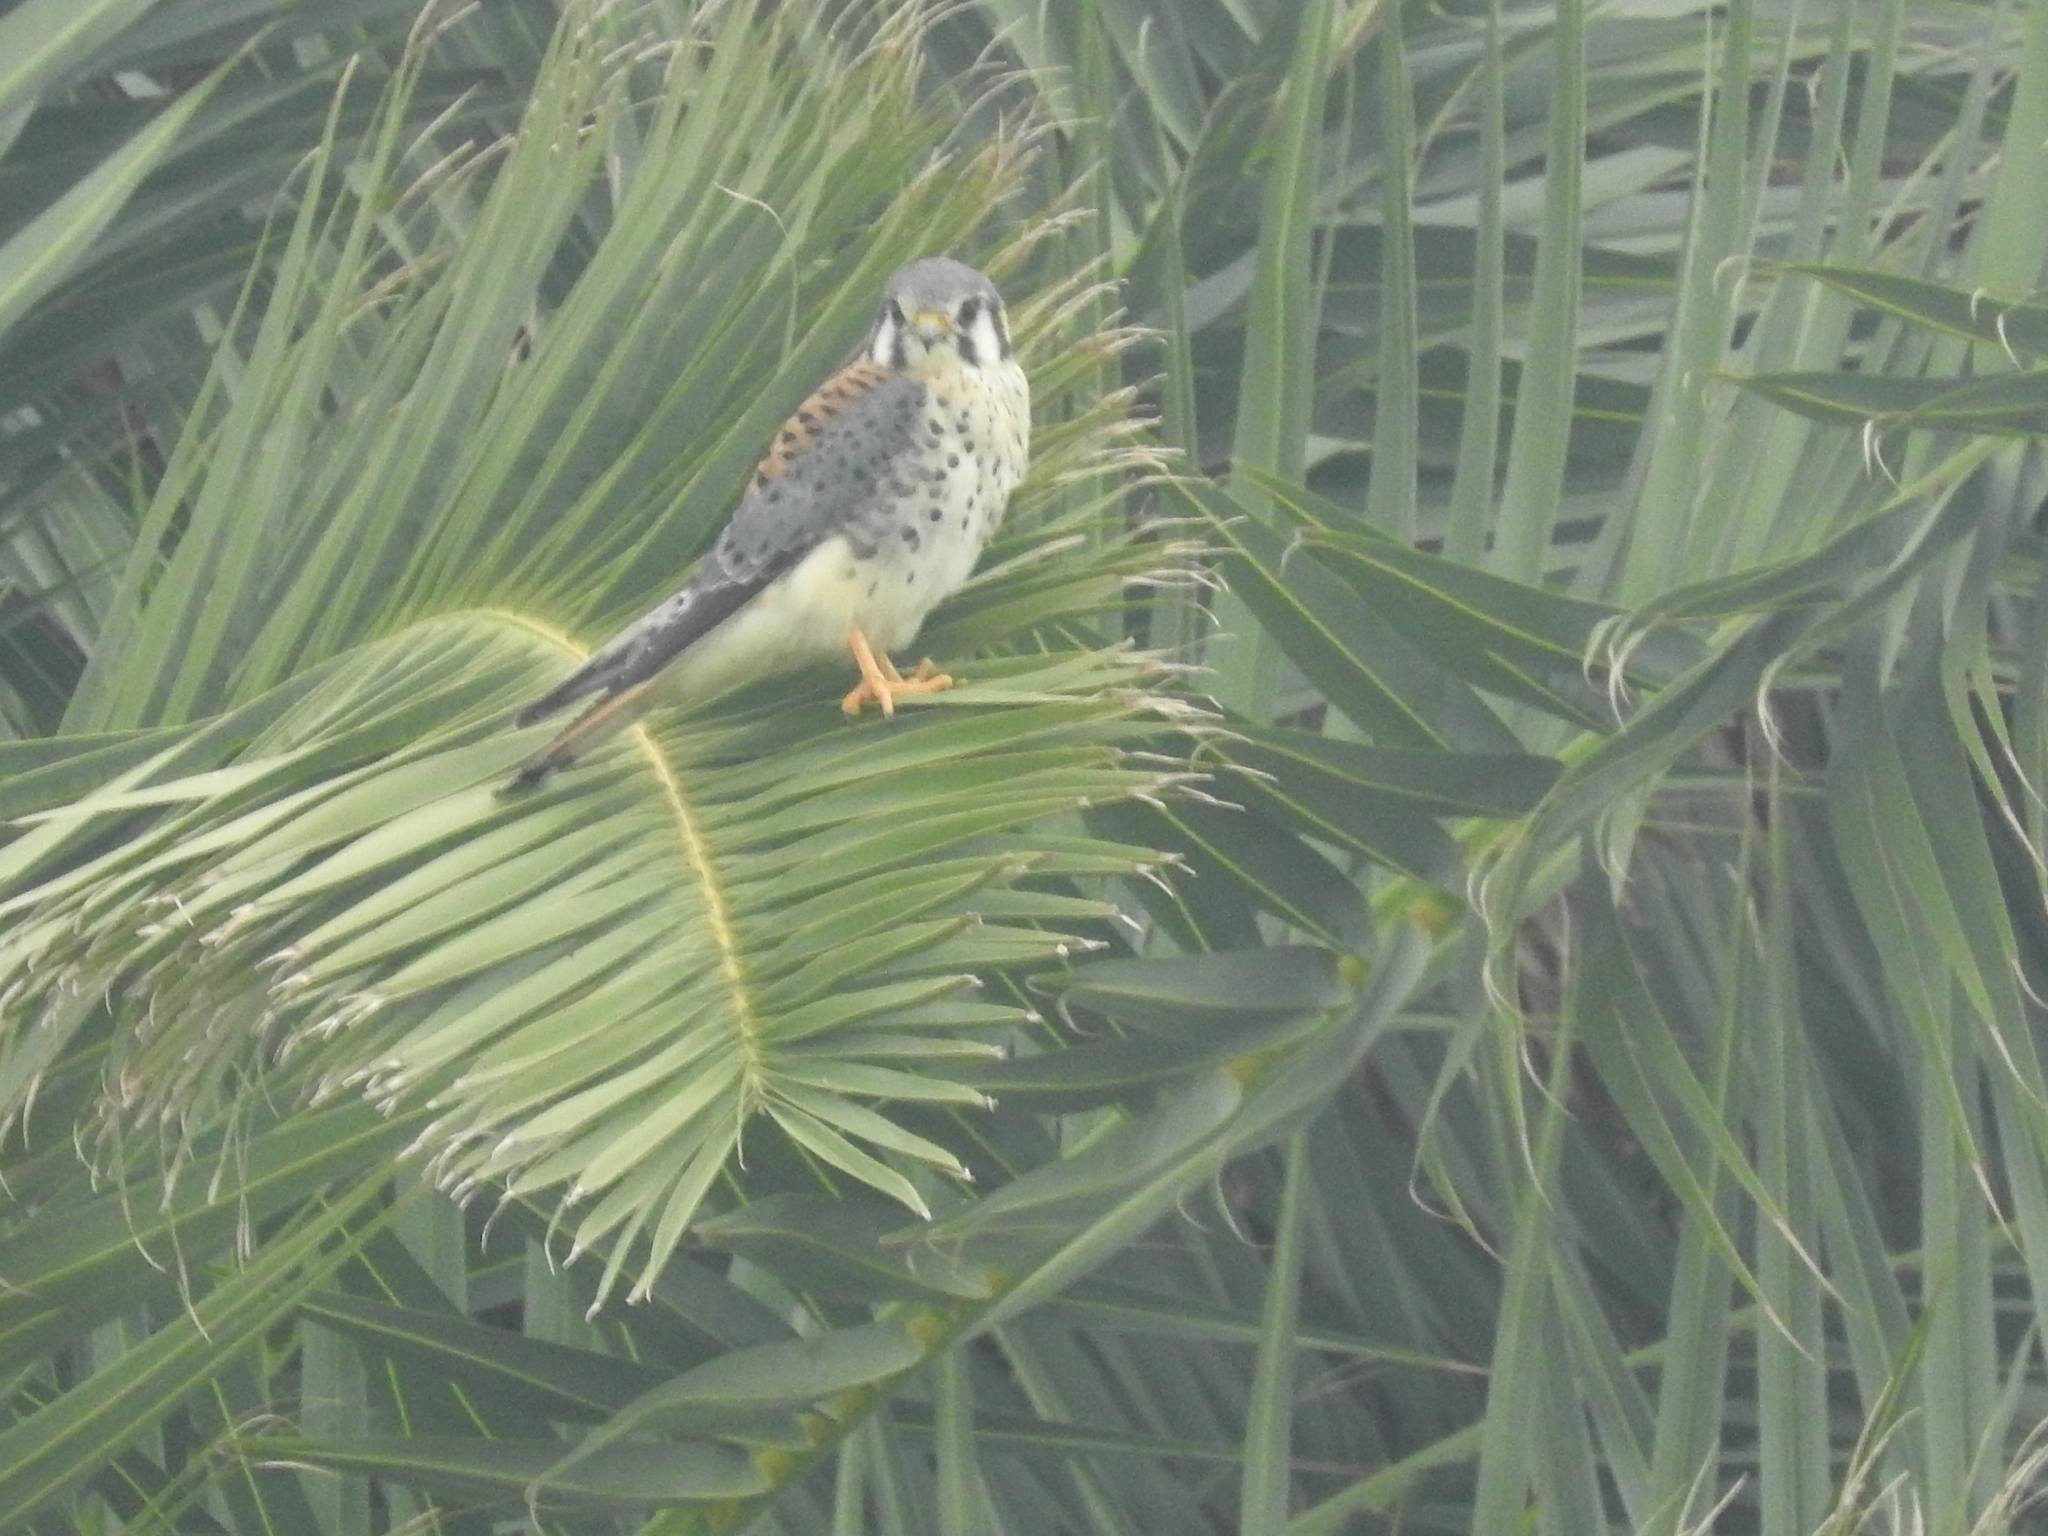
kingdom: Animalia
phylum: Chordata
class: Aves
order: Falconiformes
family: Falconidae
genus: Falco
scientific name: Falco sparverius
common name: American kestrel
